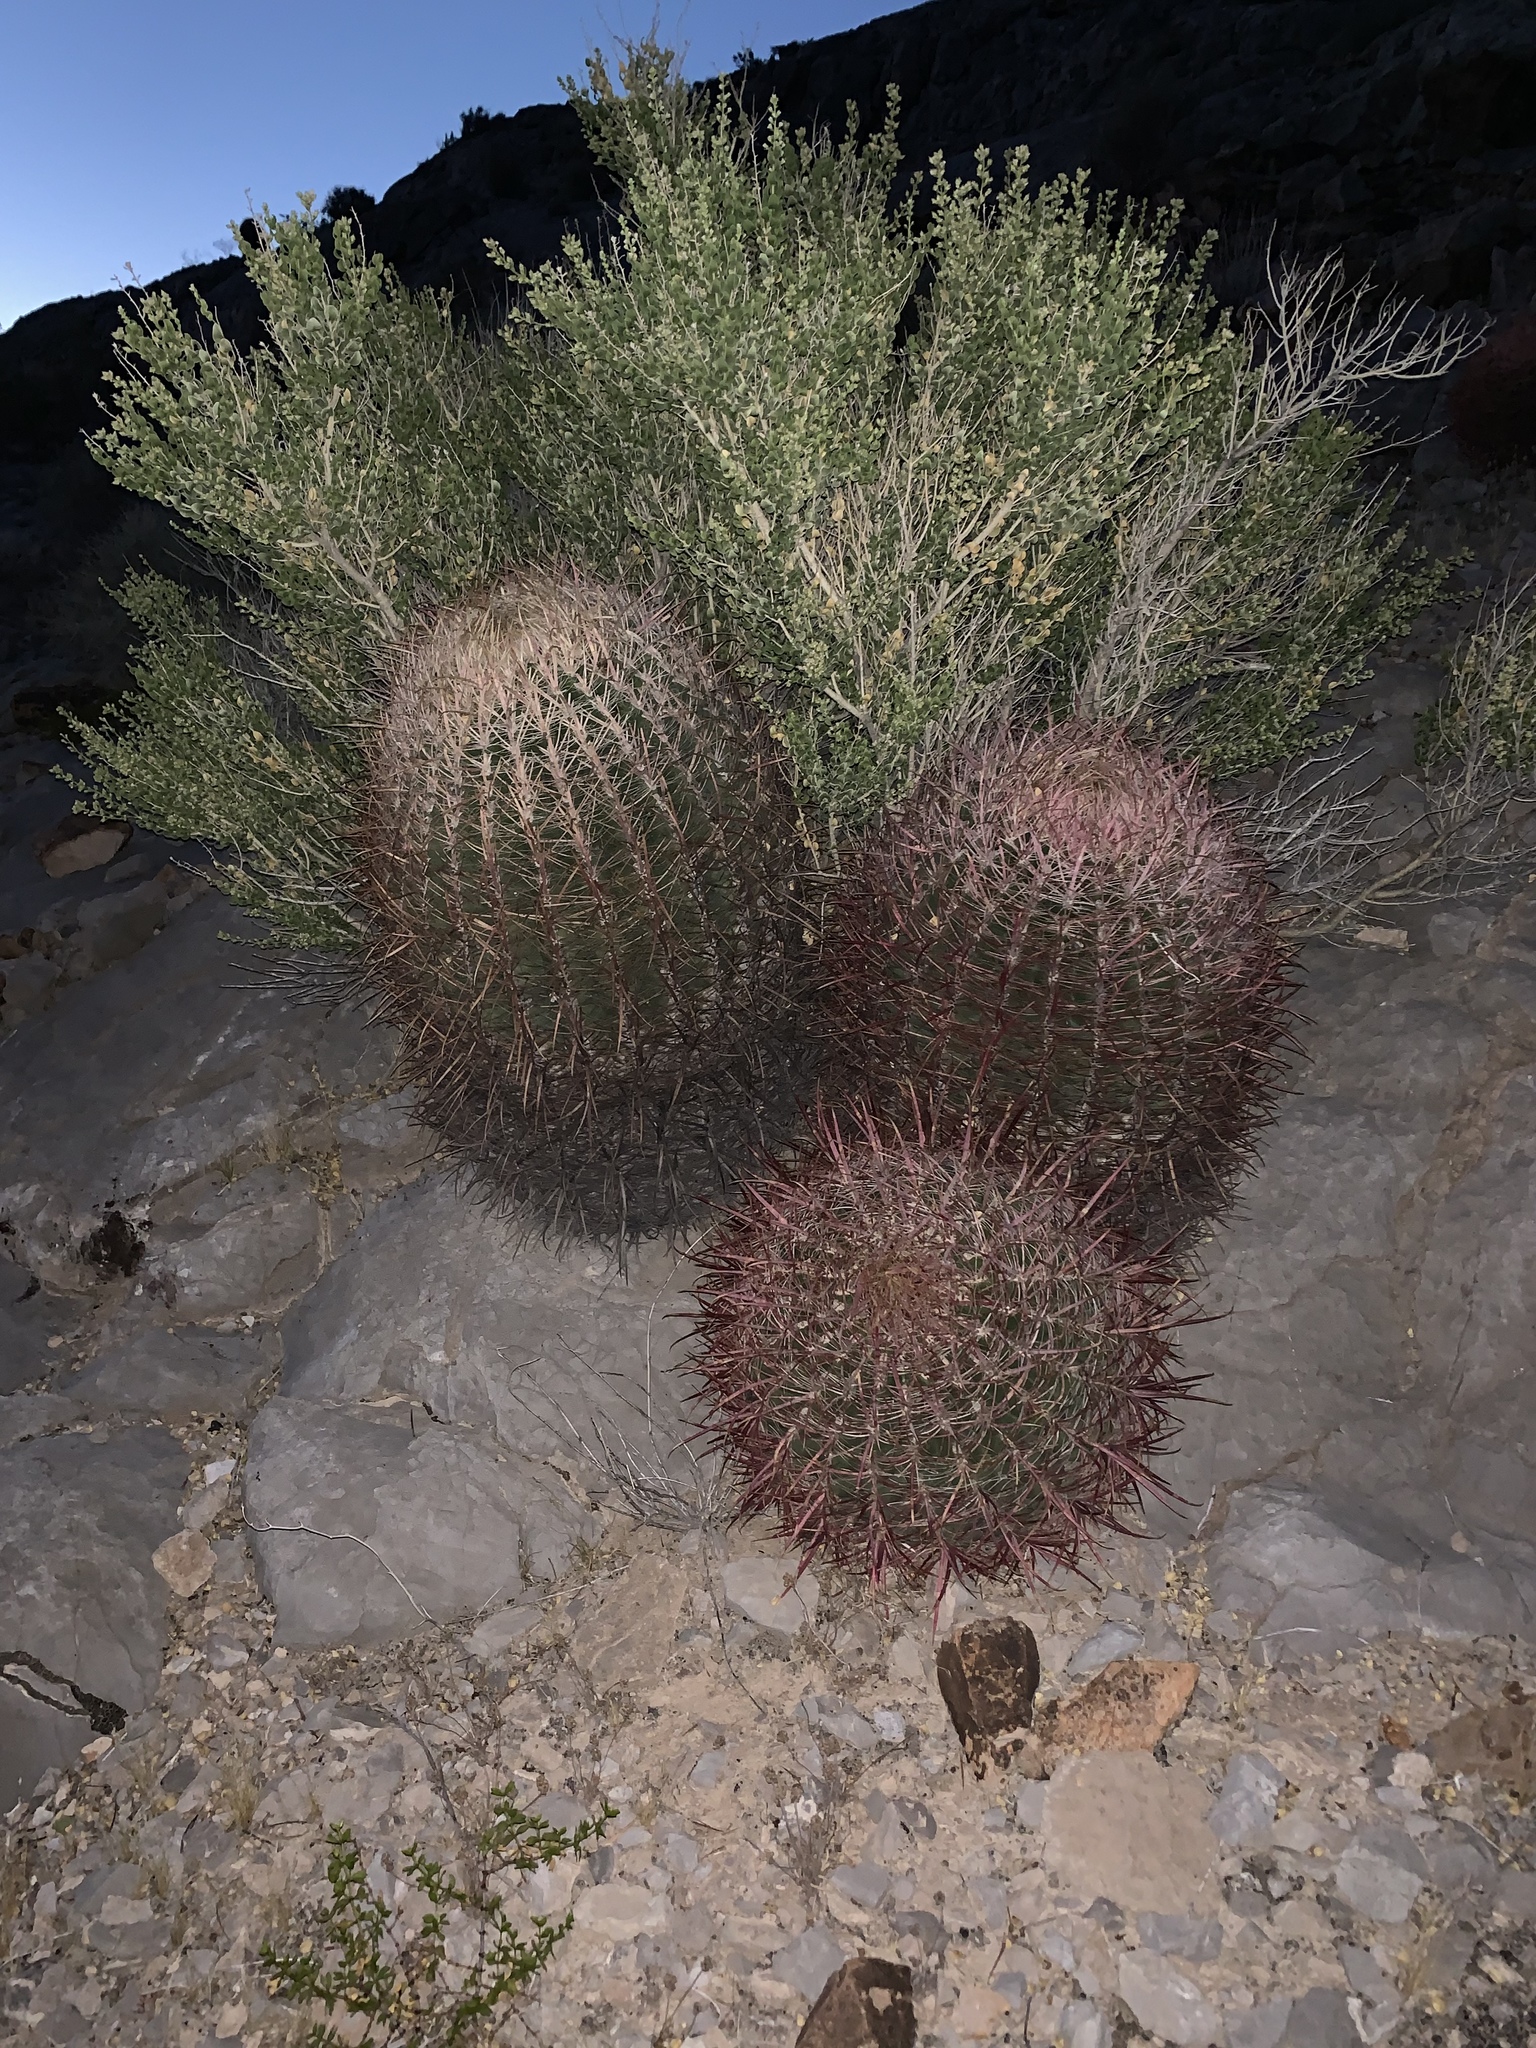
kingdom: Plantae
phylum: Tracheophyta
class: Magnoliopsida
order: Caryophyllales
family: Cactaceae
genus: Ferocactus
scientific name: Ferocactus cylindraceus
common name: California barrel cactus
